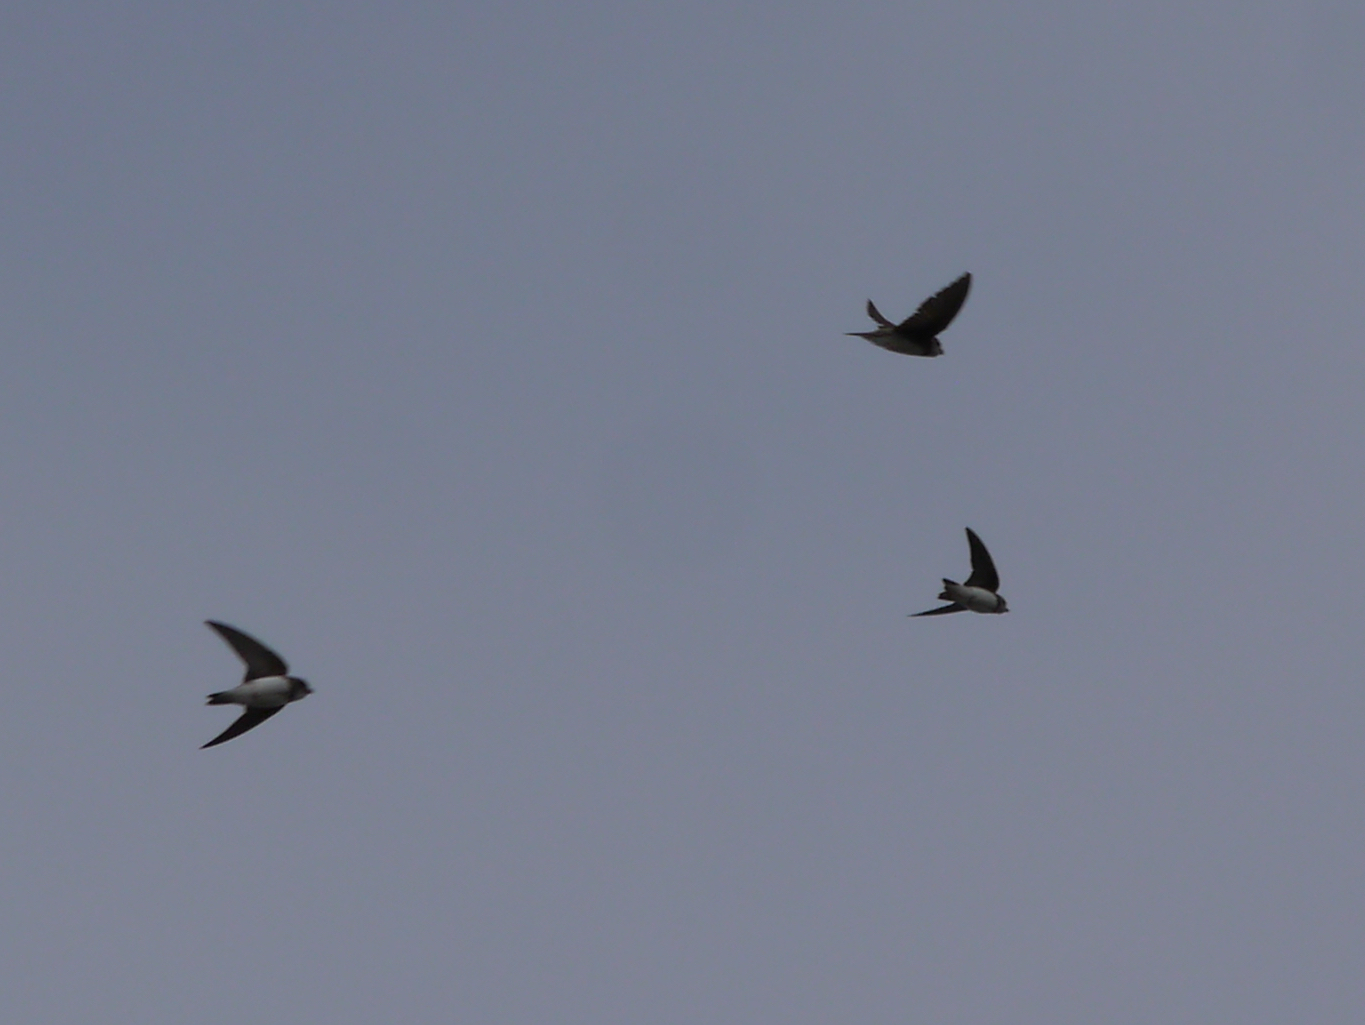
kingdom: Animalia
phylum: Chordata
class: Aves
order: Passeriformes
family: Hirundinidae
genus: Riparia
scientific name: Riparia riparia
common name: Sand martin
